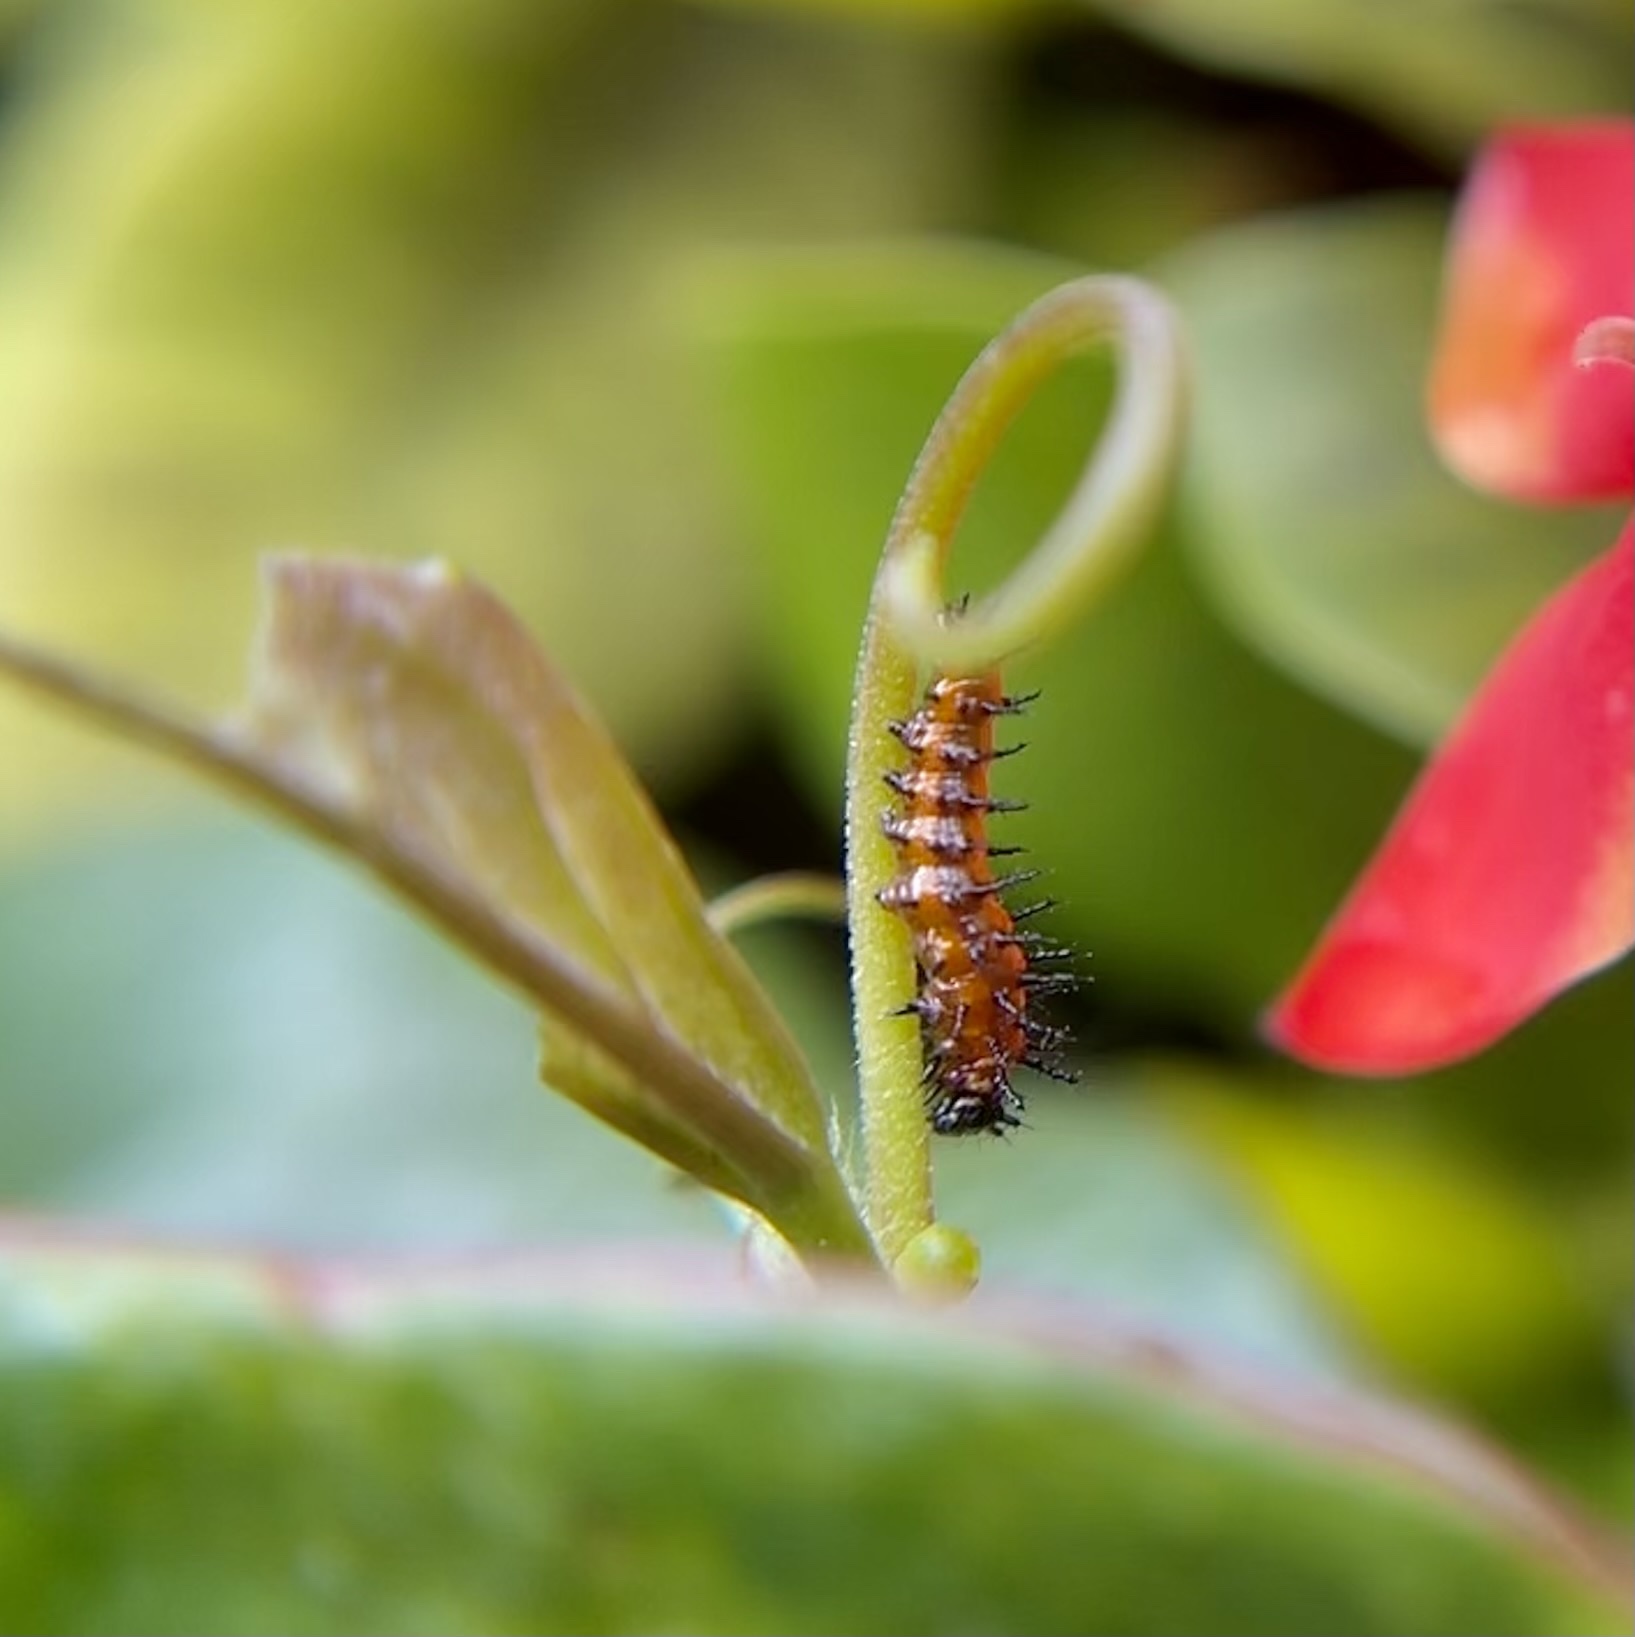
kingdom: Animalia
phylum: Arthropoda
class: Insecta
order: Lepidoptera
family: Nymphalidae
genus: Dione
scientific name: Dione vanillae
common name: Gulf fritillary
